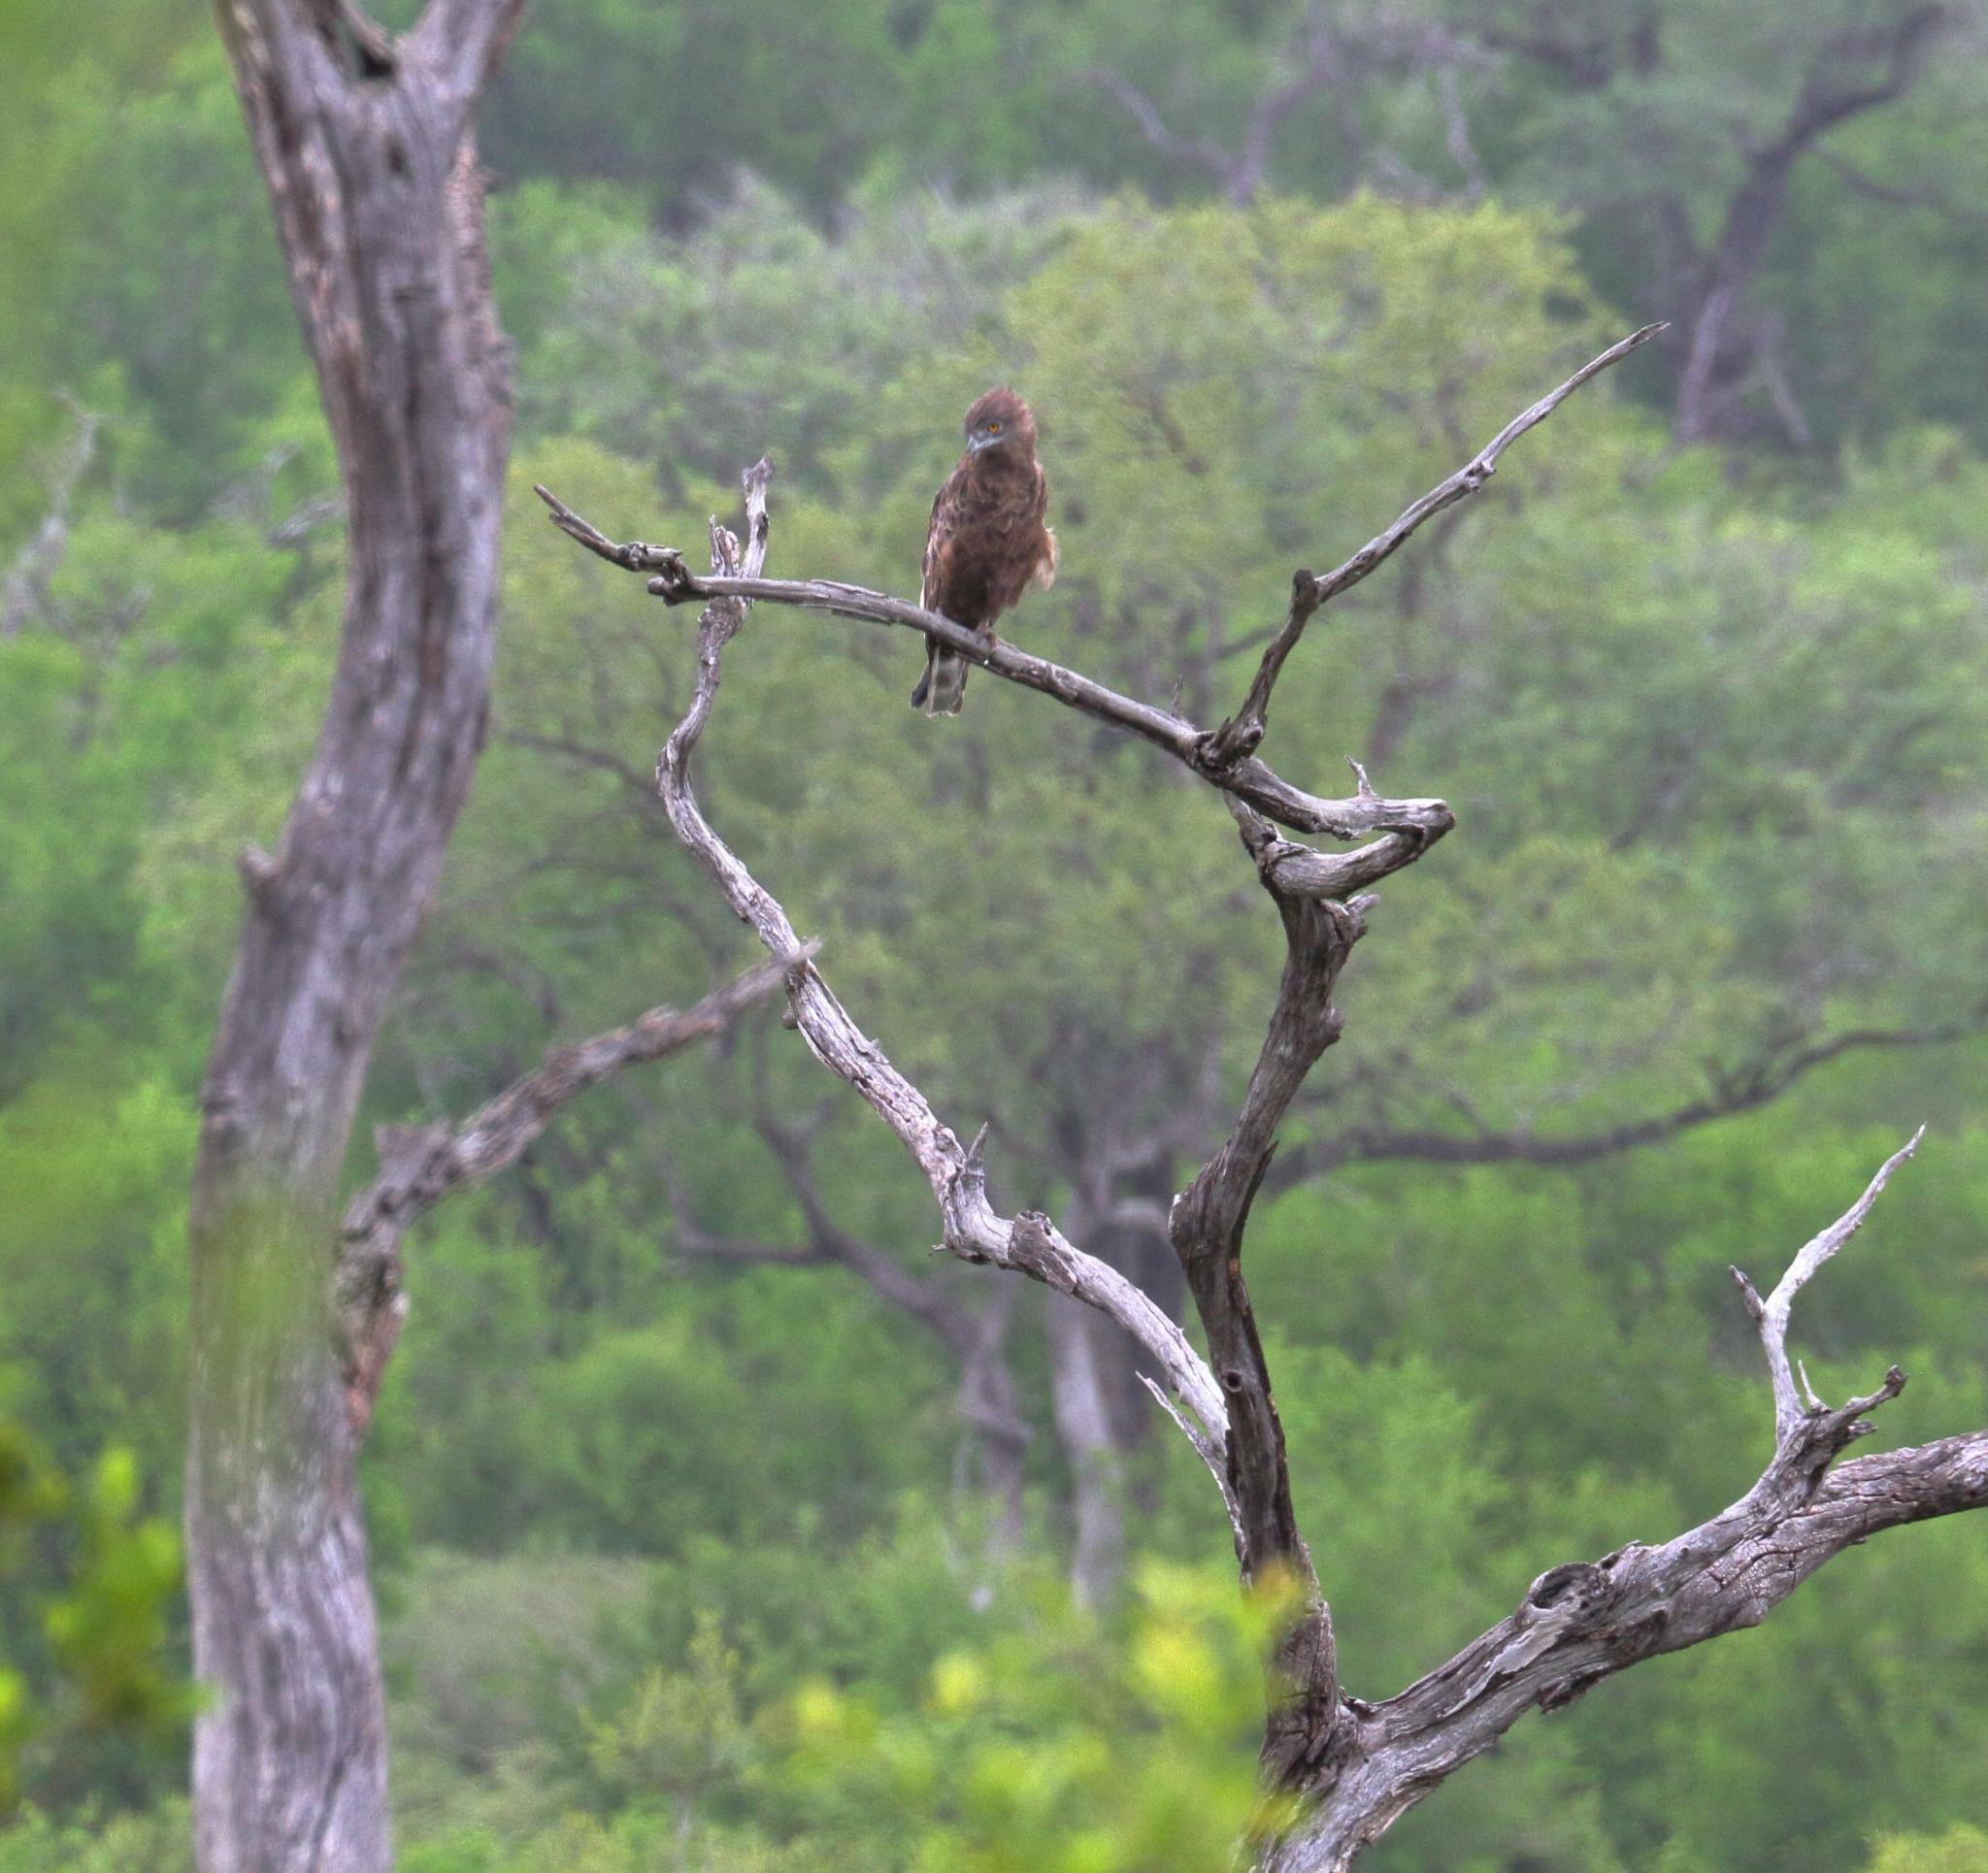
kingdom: Animalia
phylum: Chordata
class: Aves
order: Accipitriformes
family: Accipitridae
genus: Circaetus
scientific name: Circaetus cinereus
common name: Brown snake eagle
